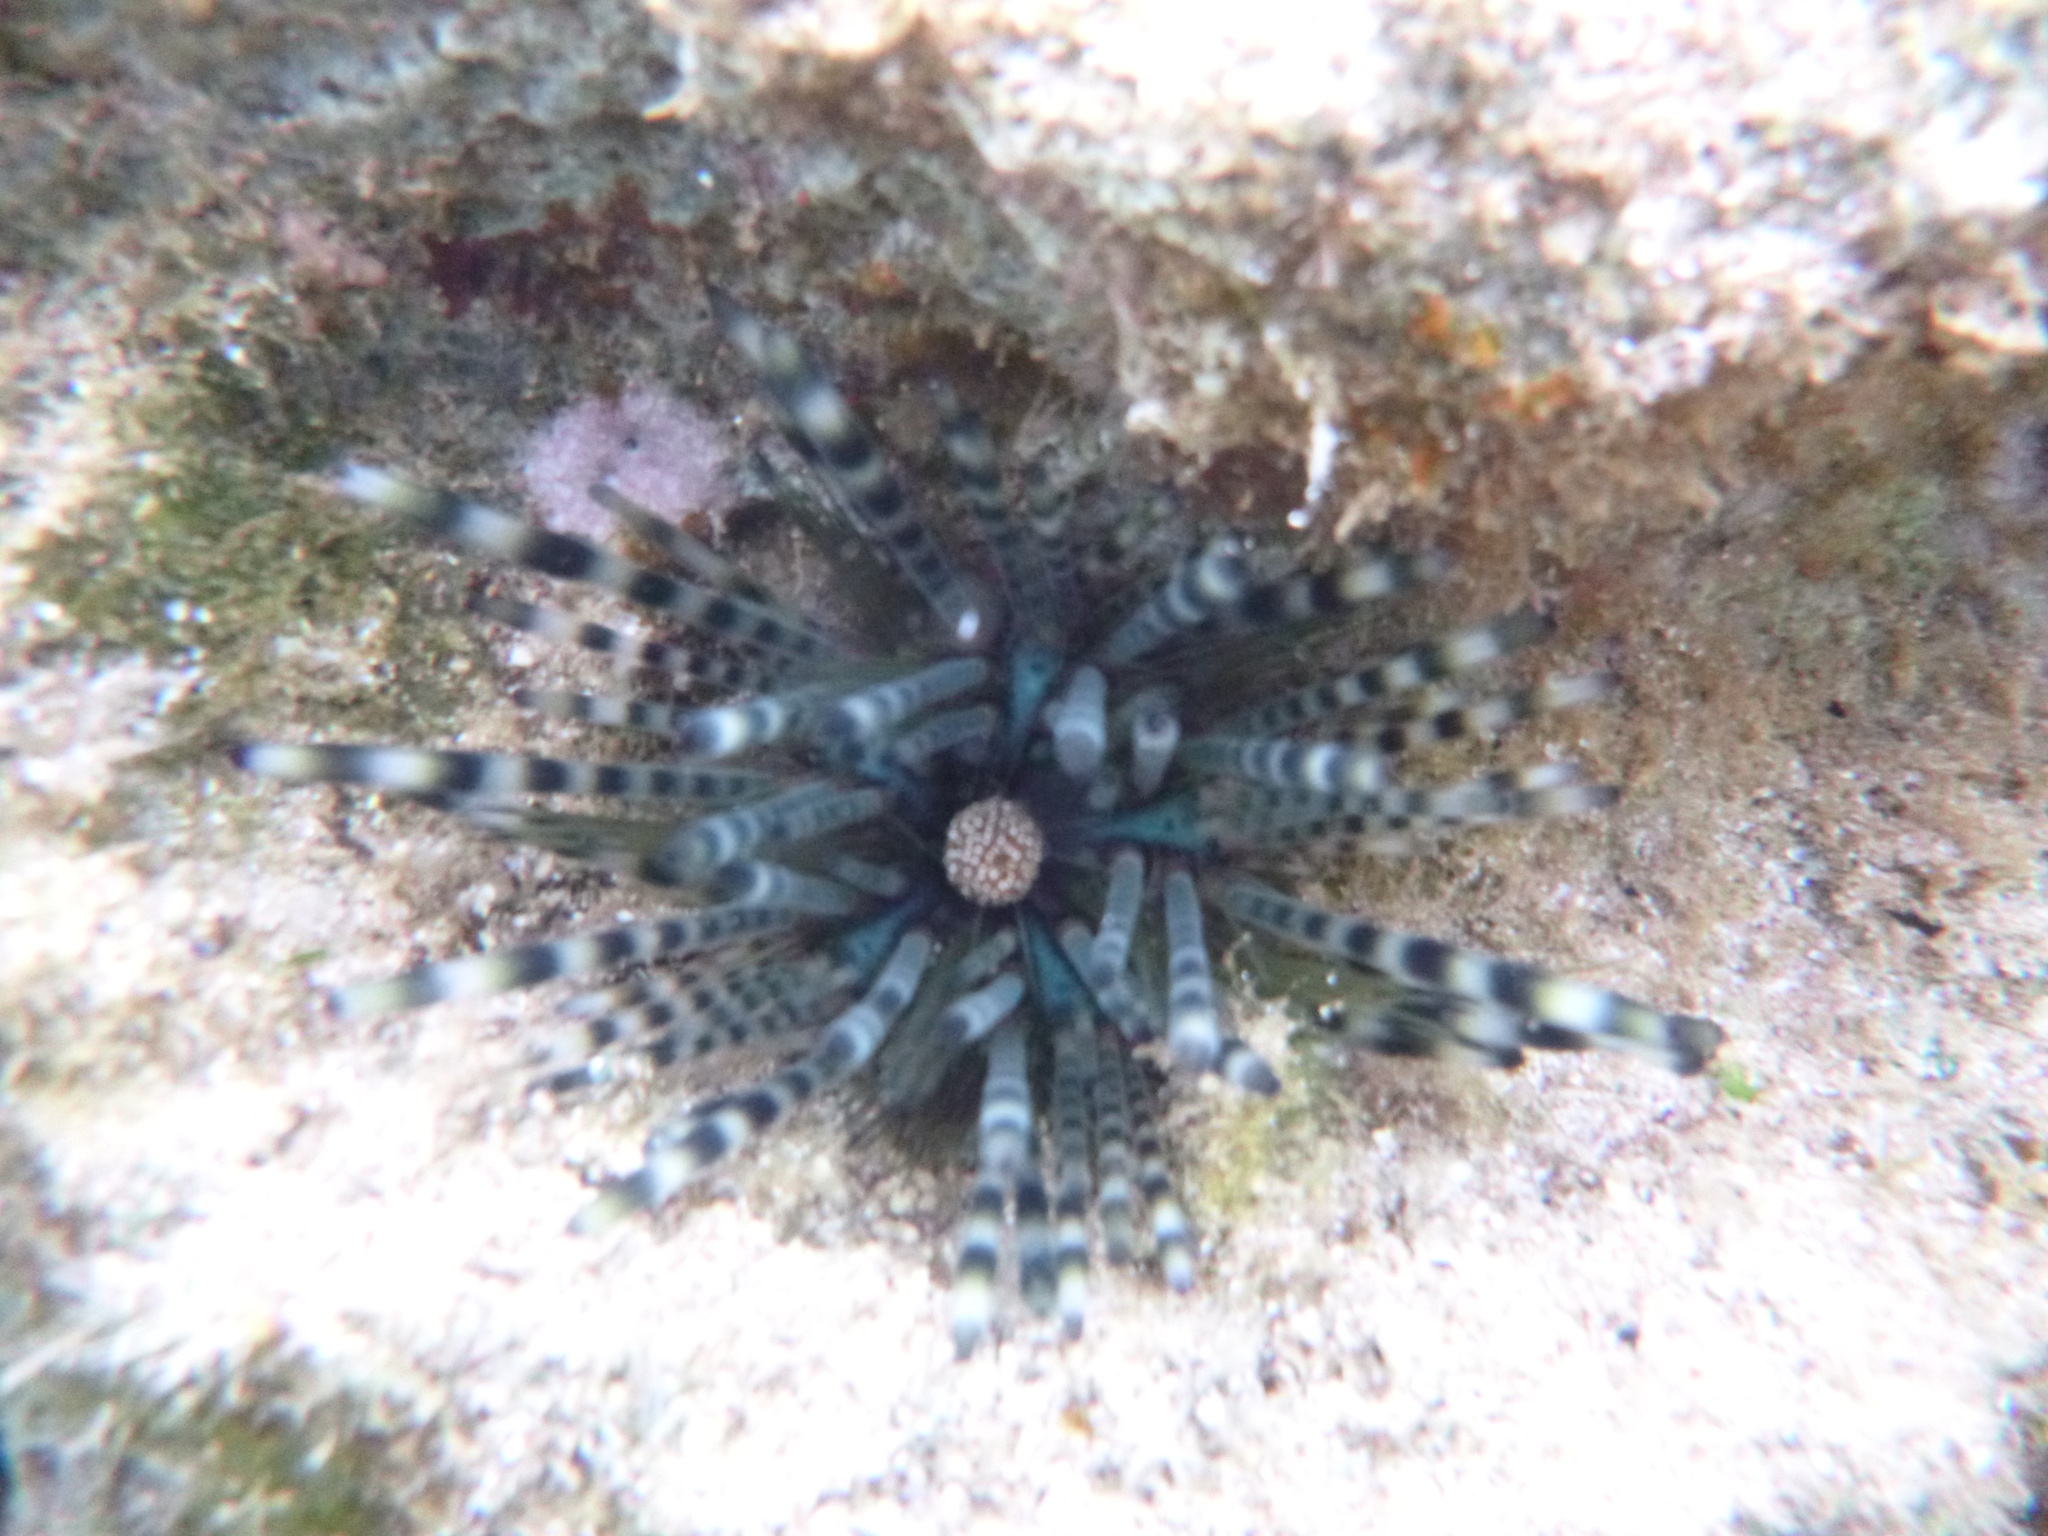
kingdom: Animalia
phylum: Echinodermata
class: Echinoidea
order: Diadematoida
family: Diadematidae
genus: Echinothrix
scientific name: Echinothrix calamaris
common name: Banded sea urchin
